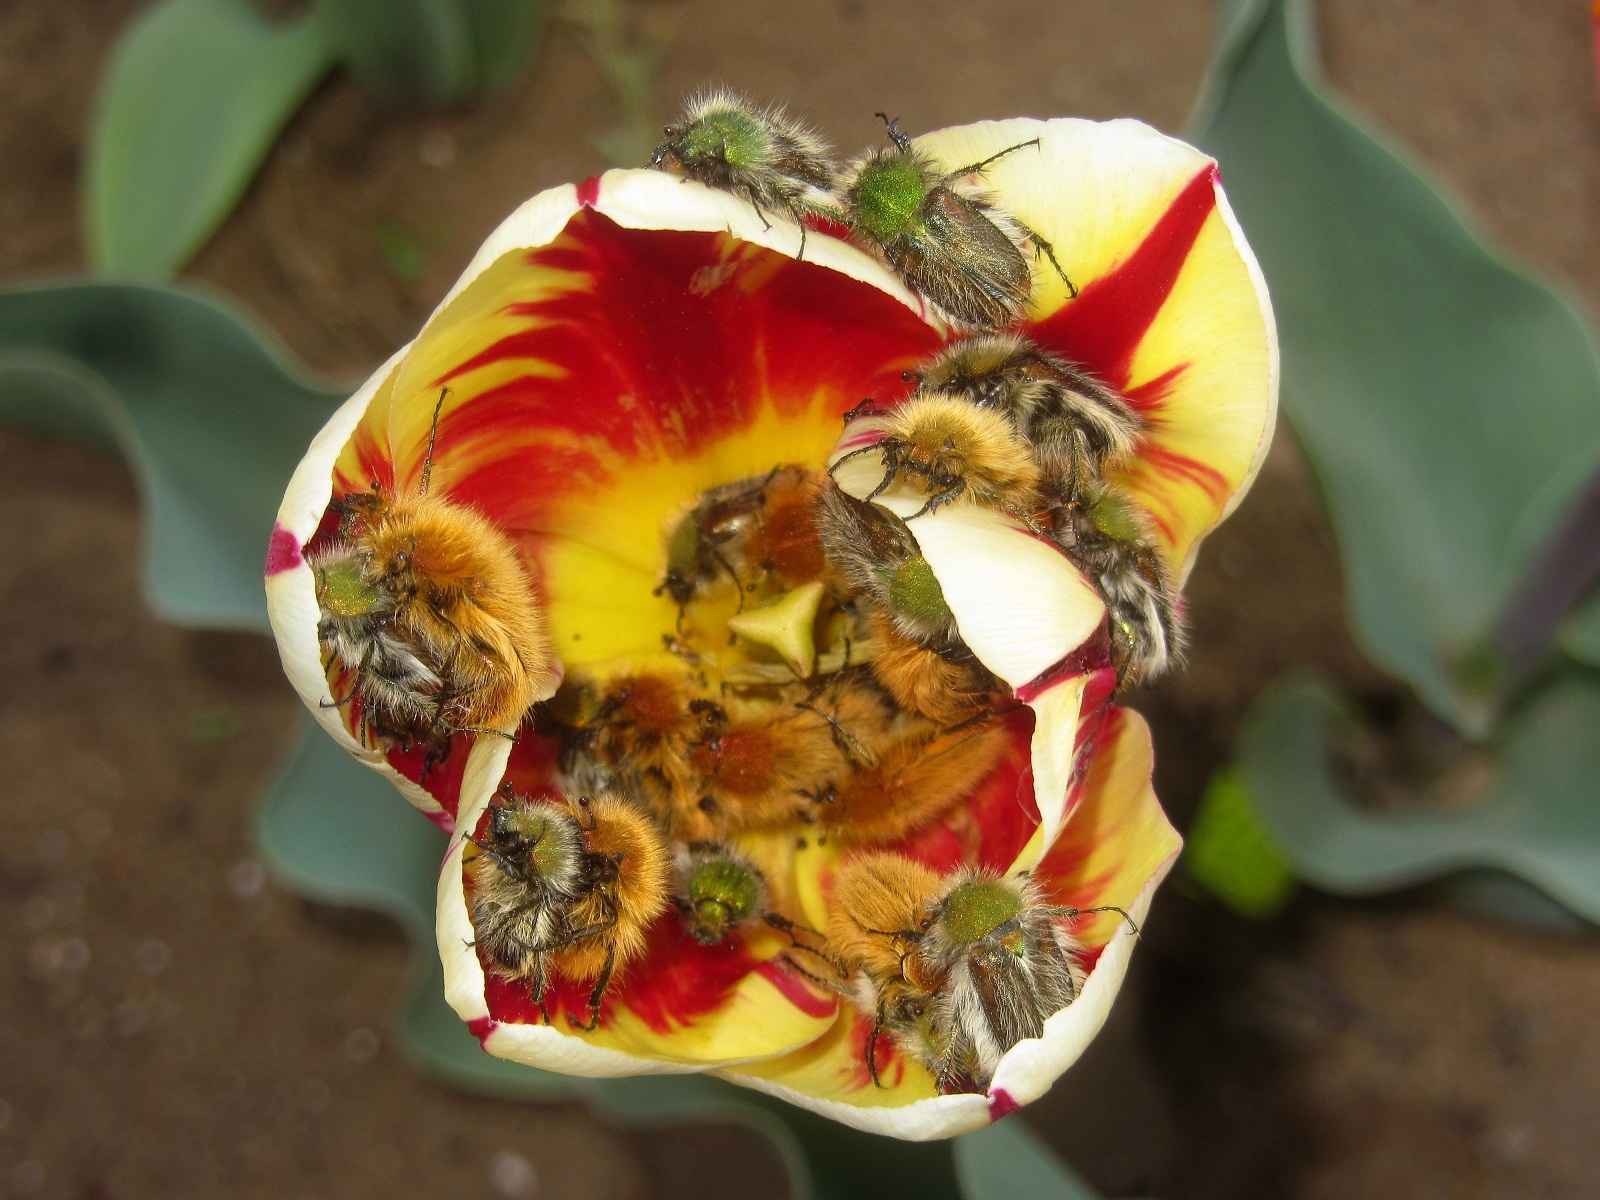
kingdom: Animalia
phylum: Arthropoda
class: Insecta
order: Coleoptera
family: Glaphyridae
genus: Pygopleurus
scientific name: Pygopleurus vulpes
